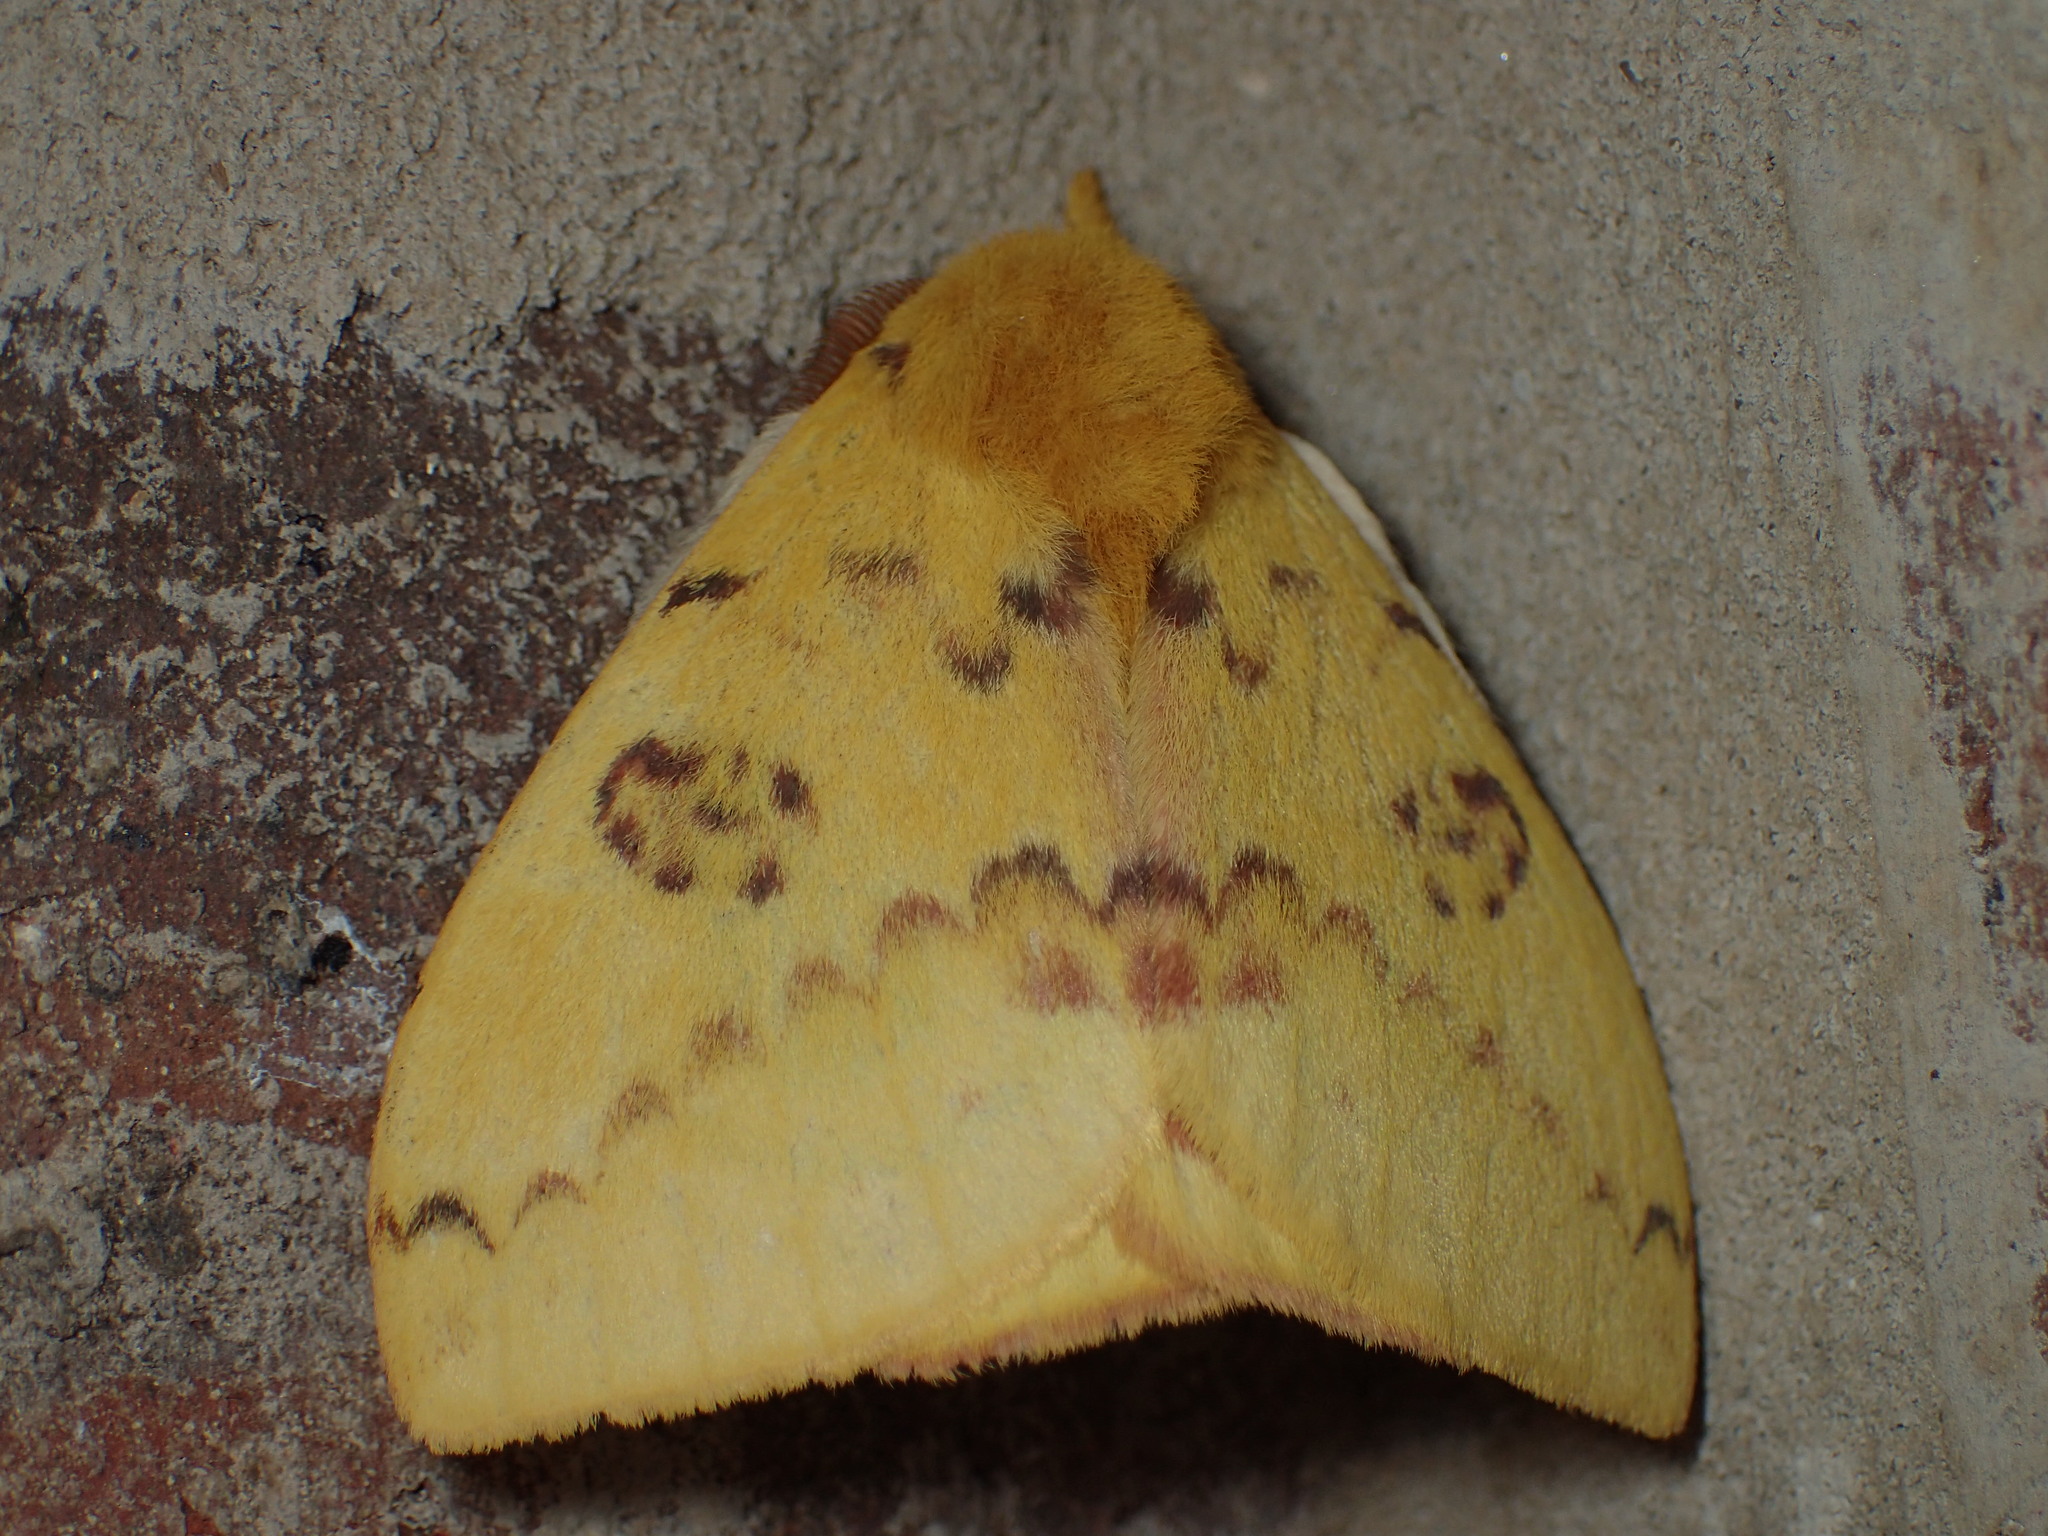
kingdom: Animalia
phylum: Arthropoda
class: Insecta
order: Lepidoptera
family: Saturniidae
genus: Automeris
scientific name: Automeris io
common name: Io moth
